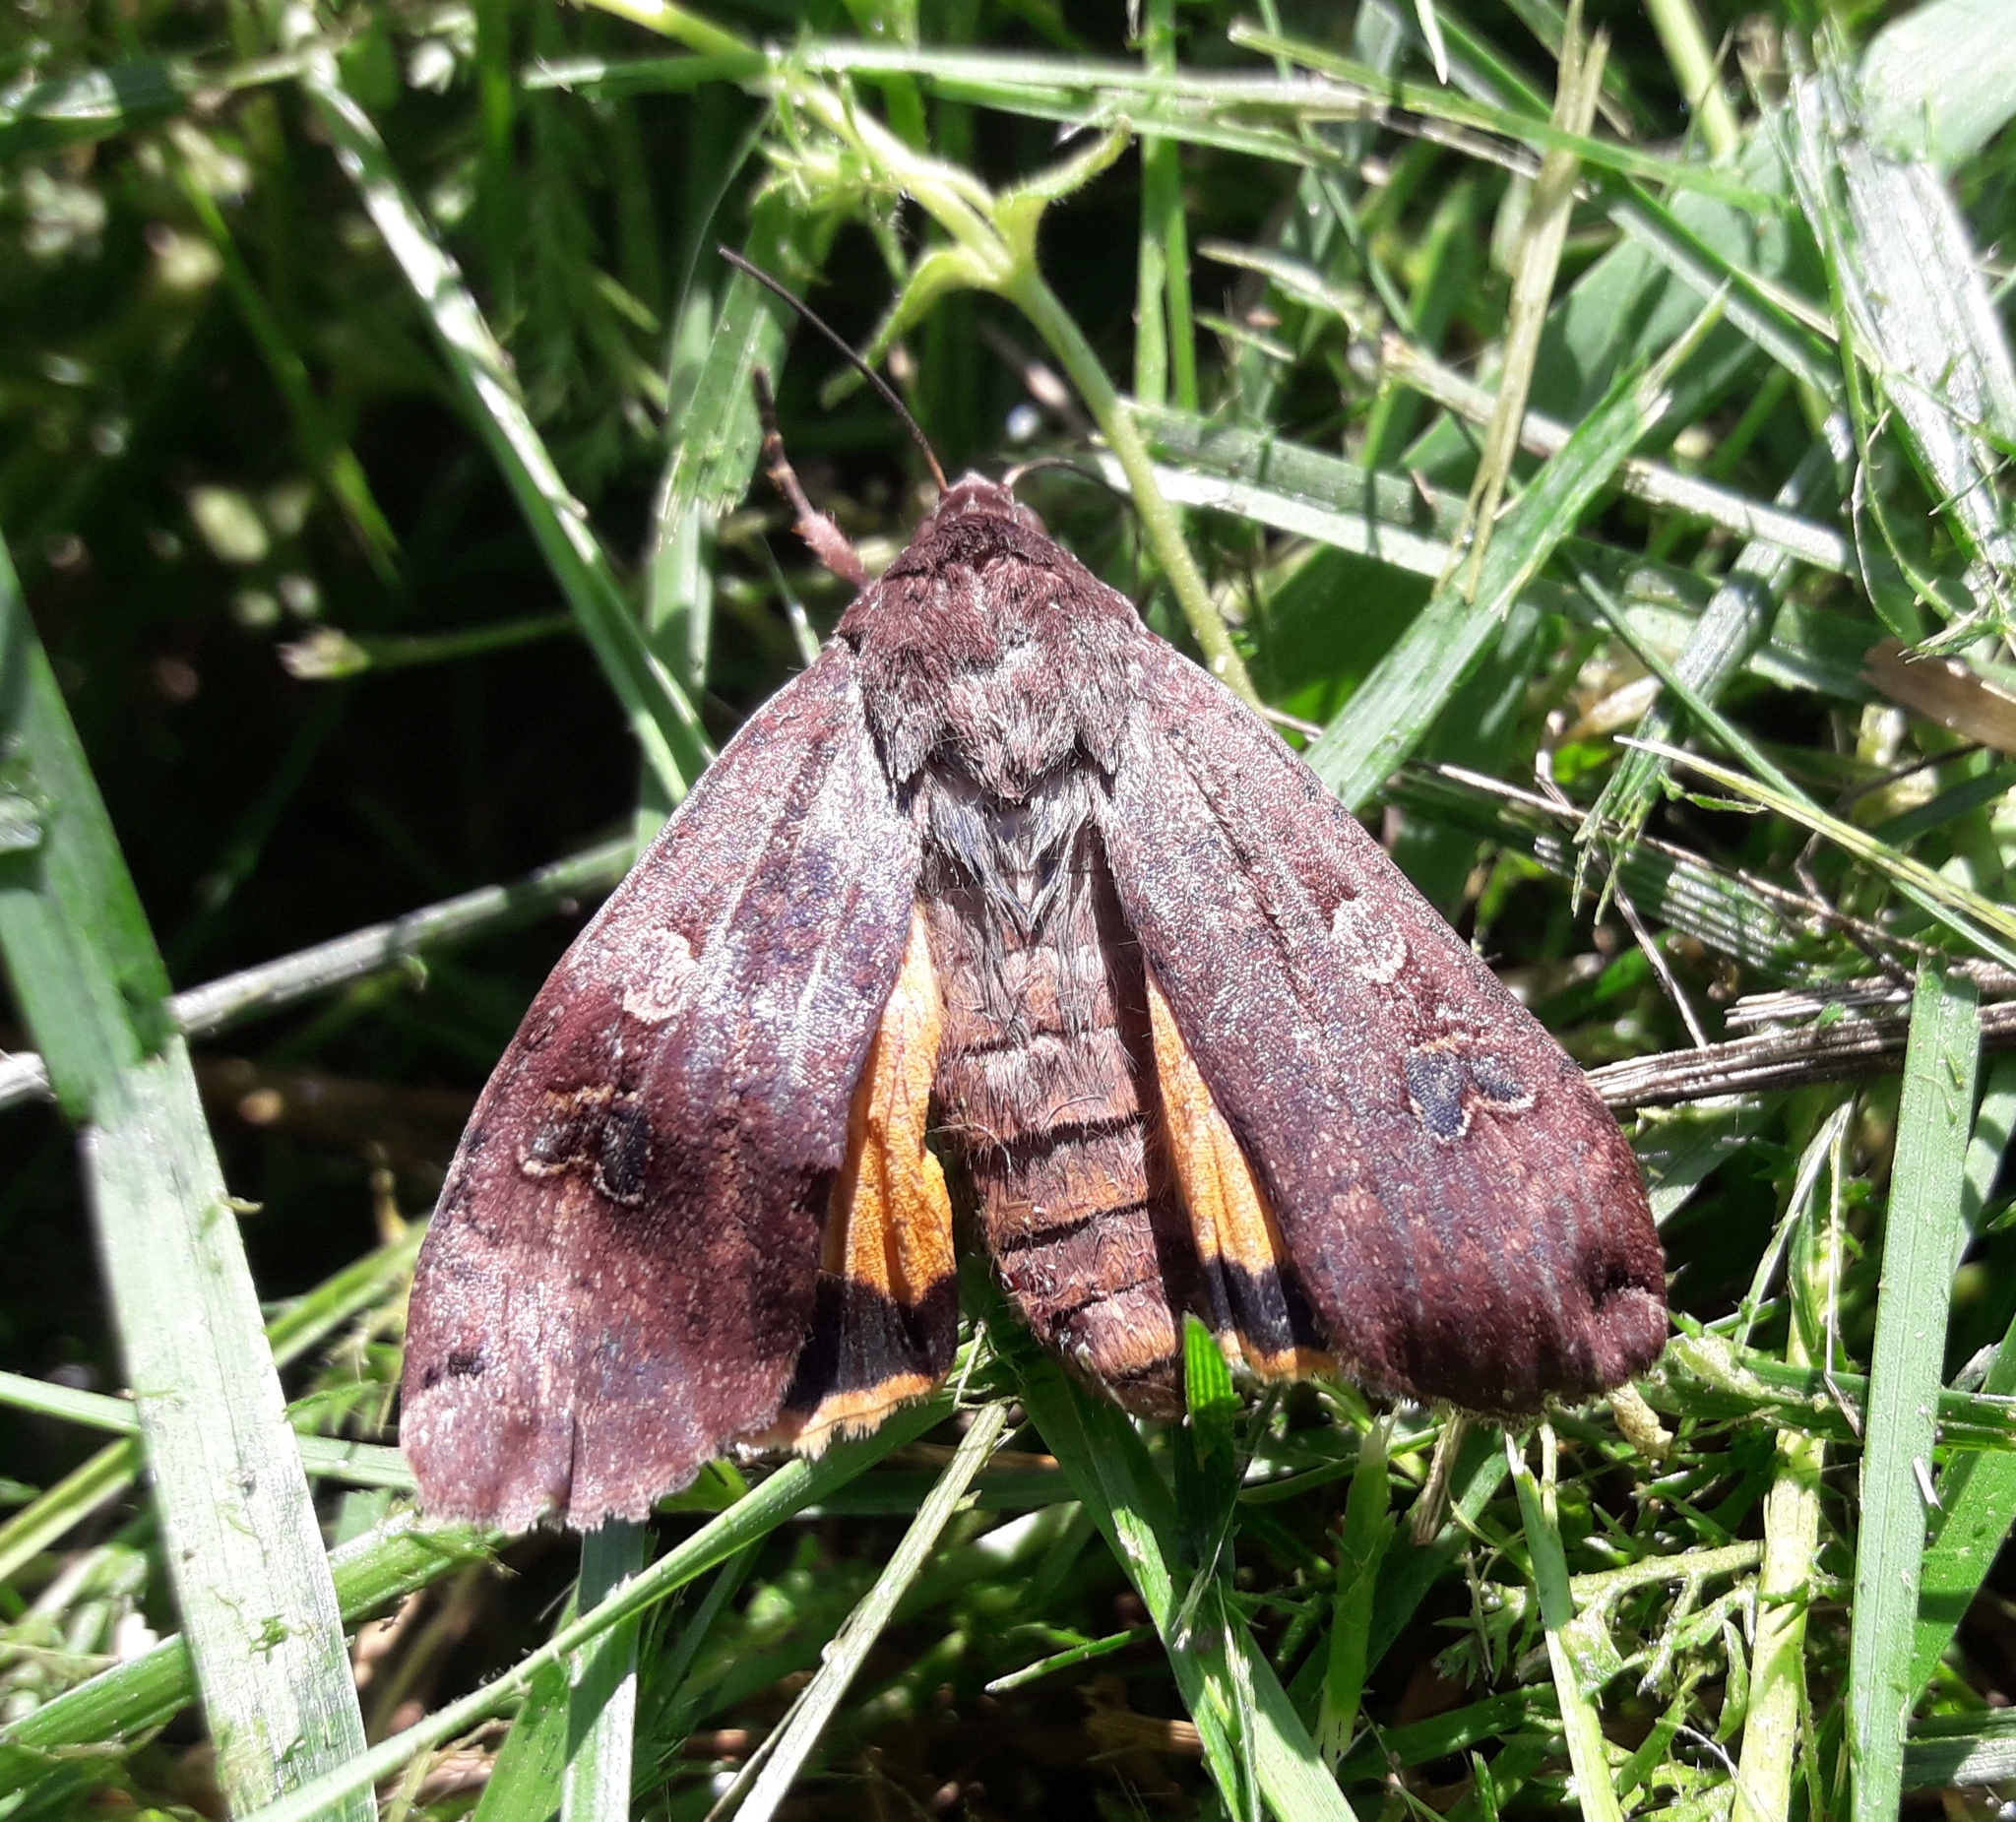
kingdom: Animalia
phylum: Arthropoda
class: Insecta
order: Lepidoptera
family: Noctuidae
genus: Noctua
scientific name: Noctua pronuba
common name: Large yellow underwing
